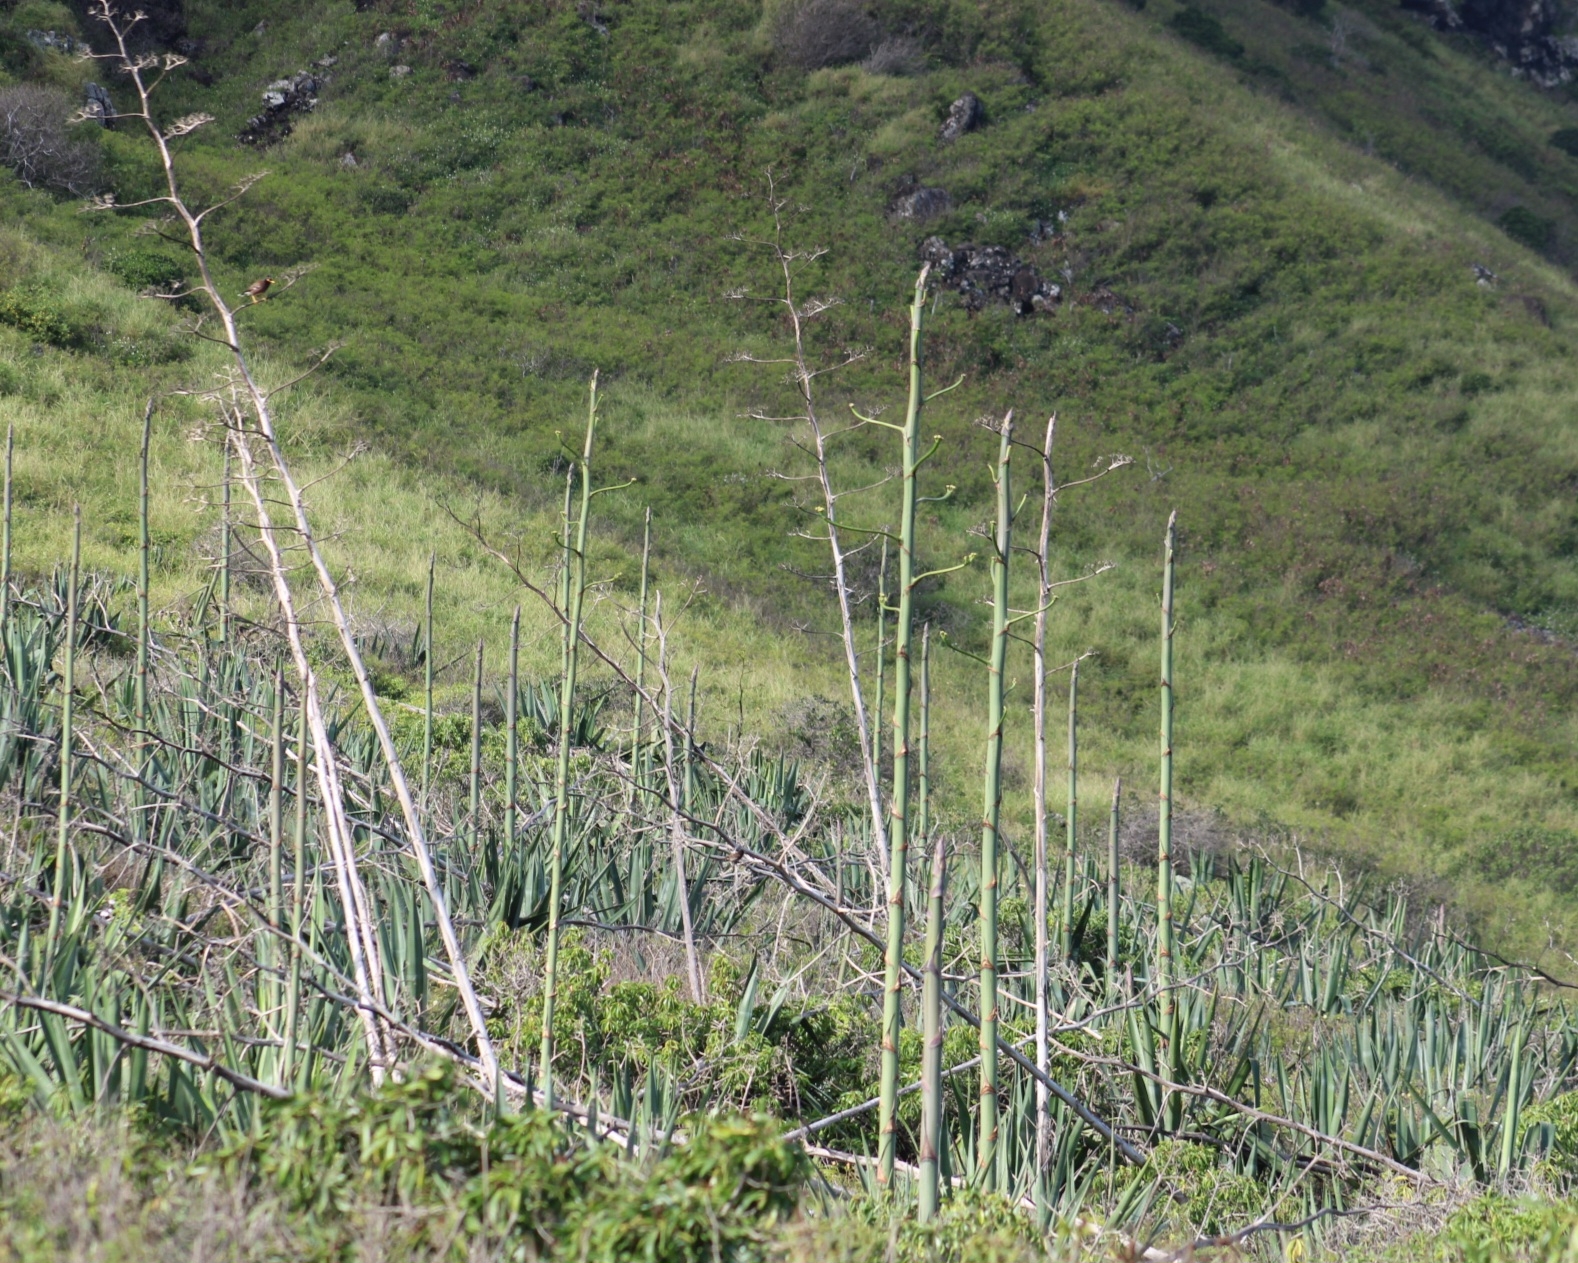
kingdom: Plantae
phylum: Tracheophyta
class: Liliopsida
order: Asparagales
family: Asparagaceae
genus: Agave
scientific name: Agave sisalana
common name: Sisal hemp
